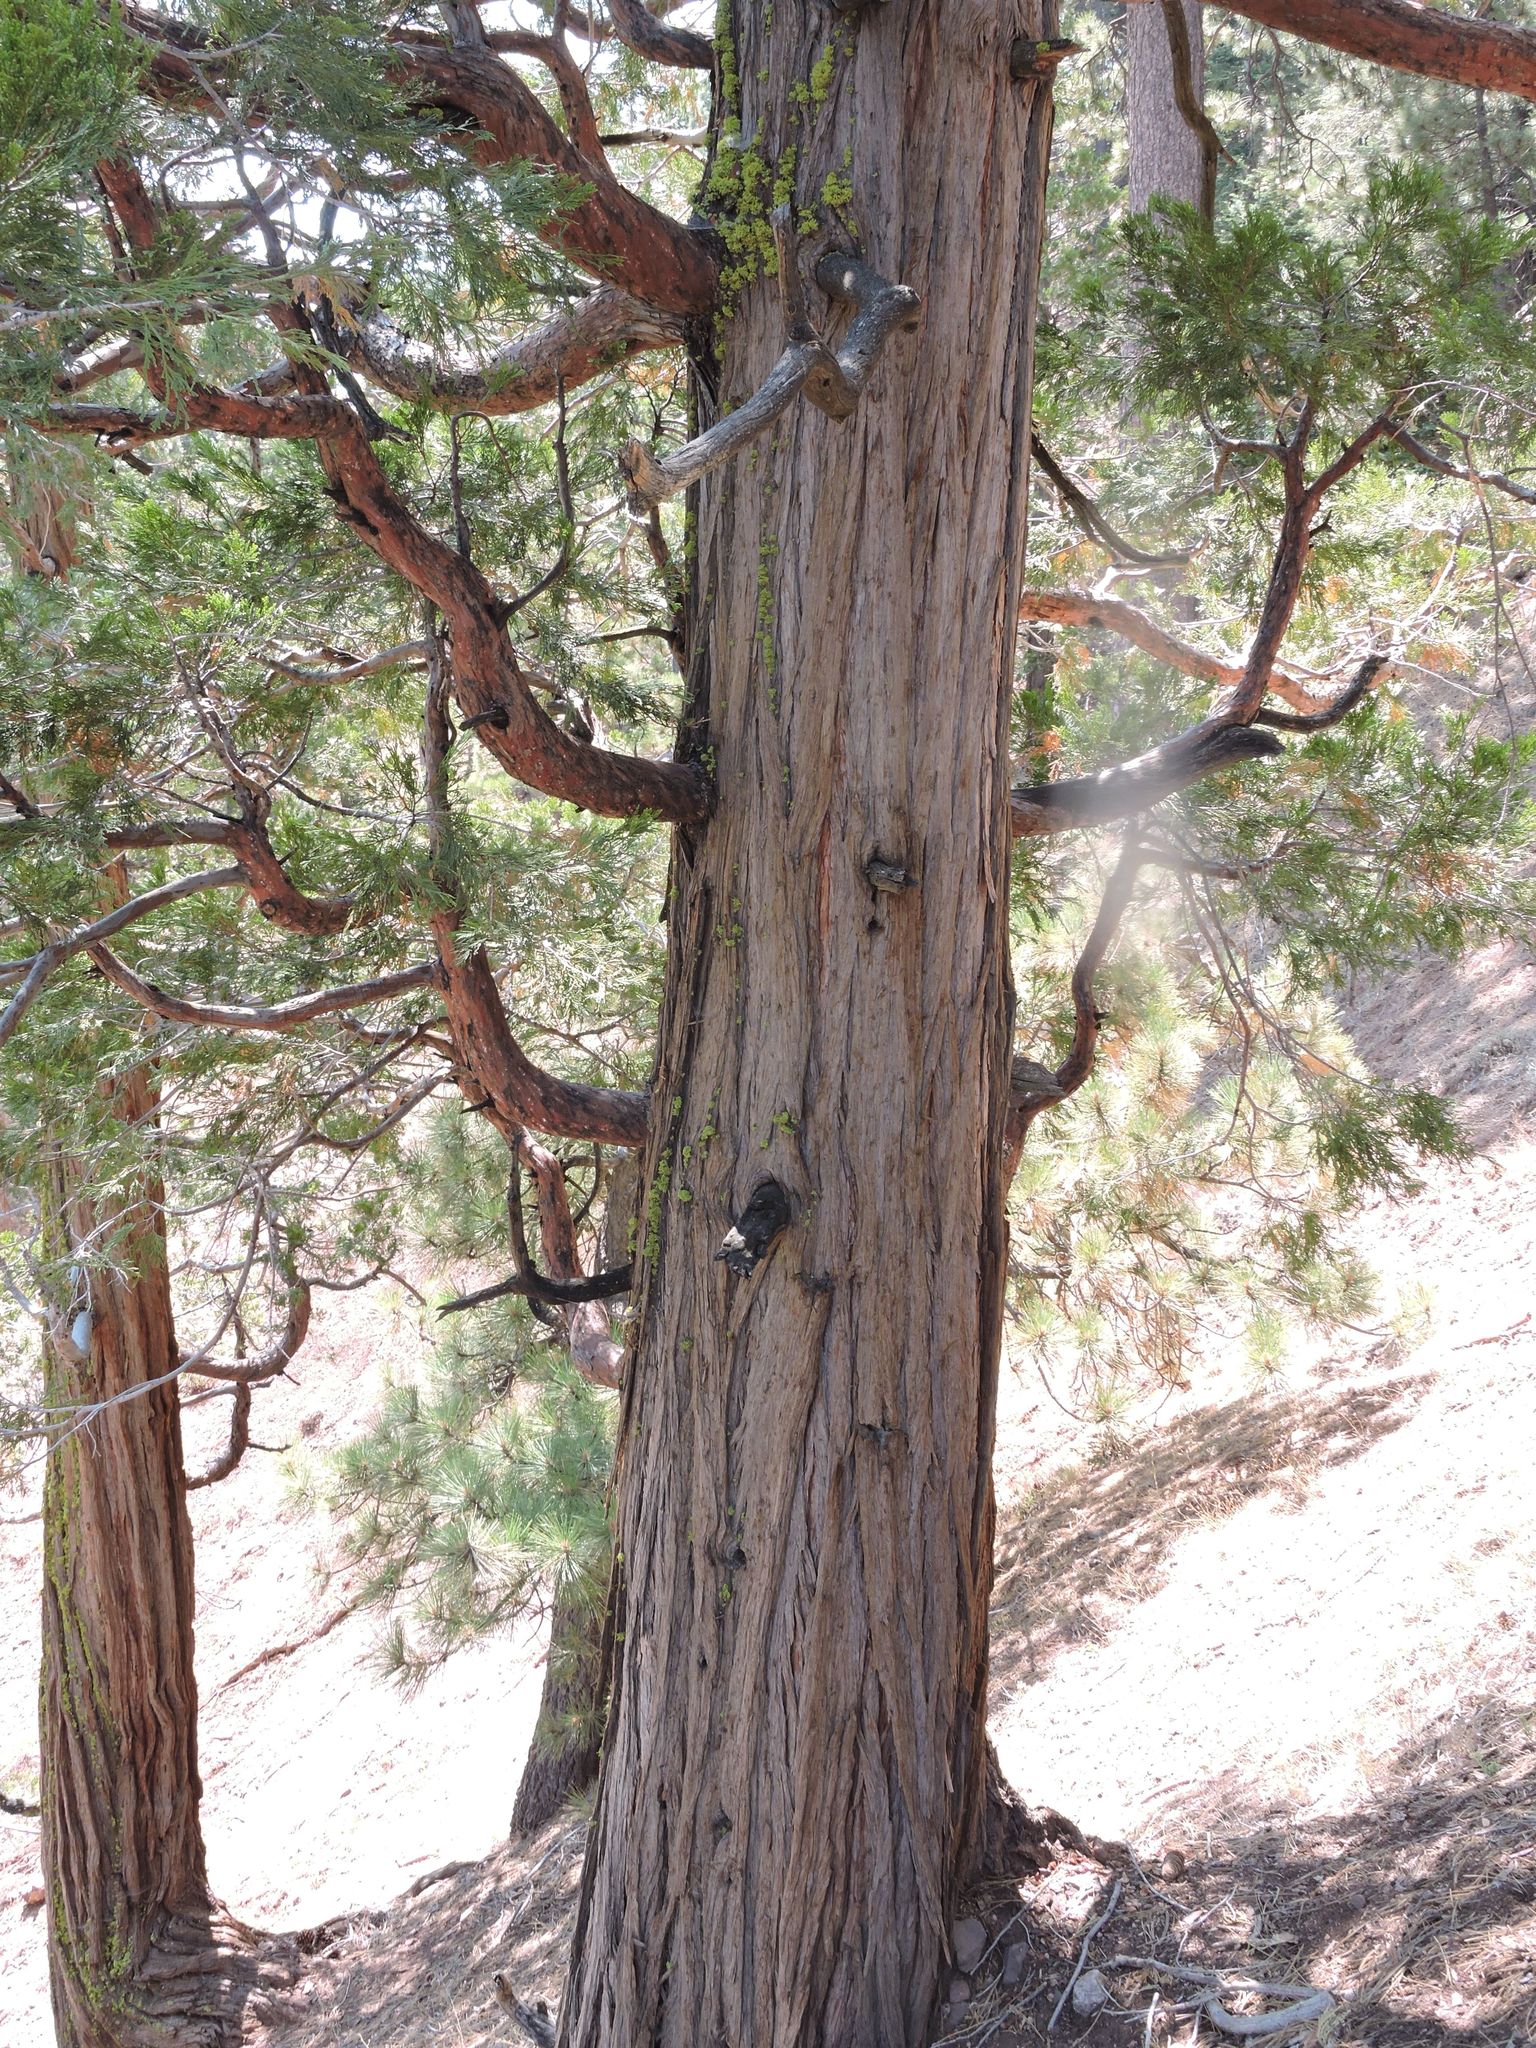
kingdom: Plantae
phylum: Tracheophyta
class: Pinopsida
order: Pinales
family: Cupressaceae
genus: Calocedrus
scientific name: Calocedrus decurrens
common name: Californian incense-cedar
